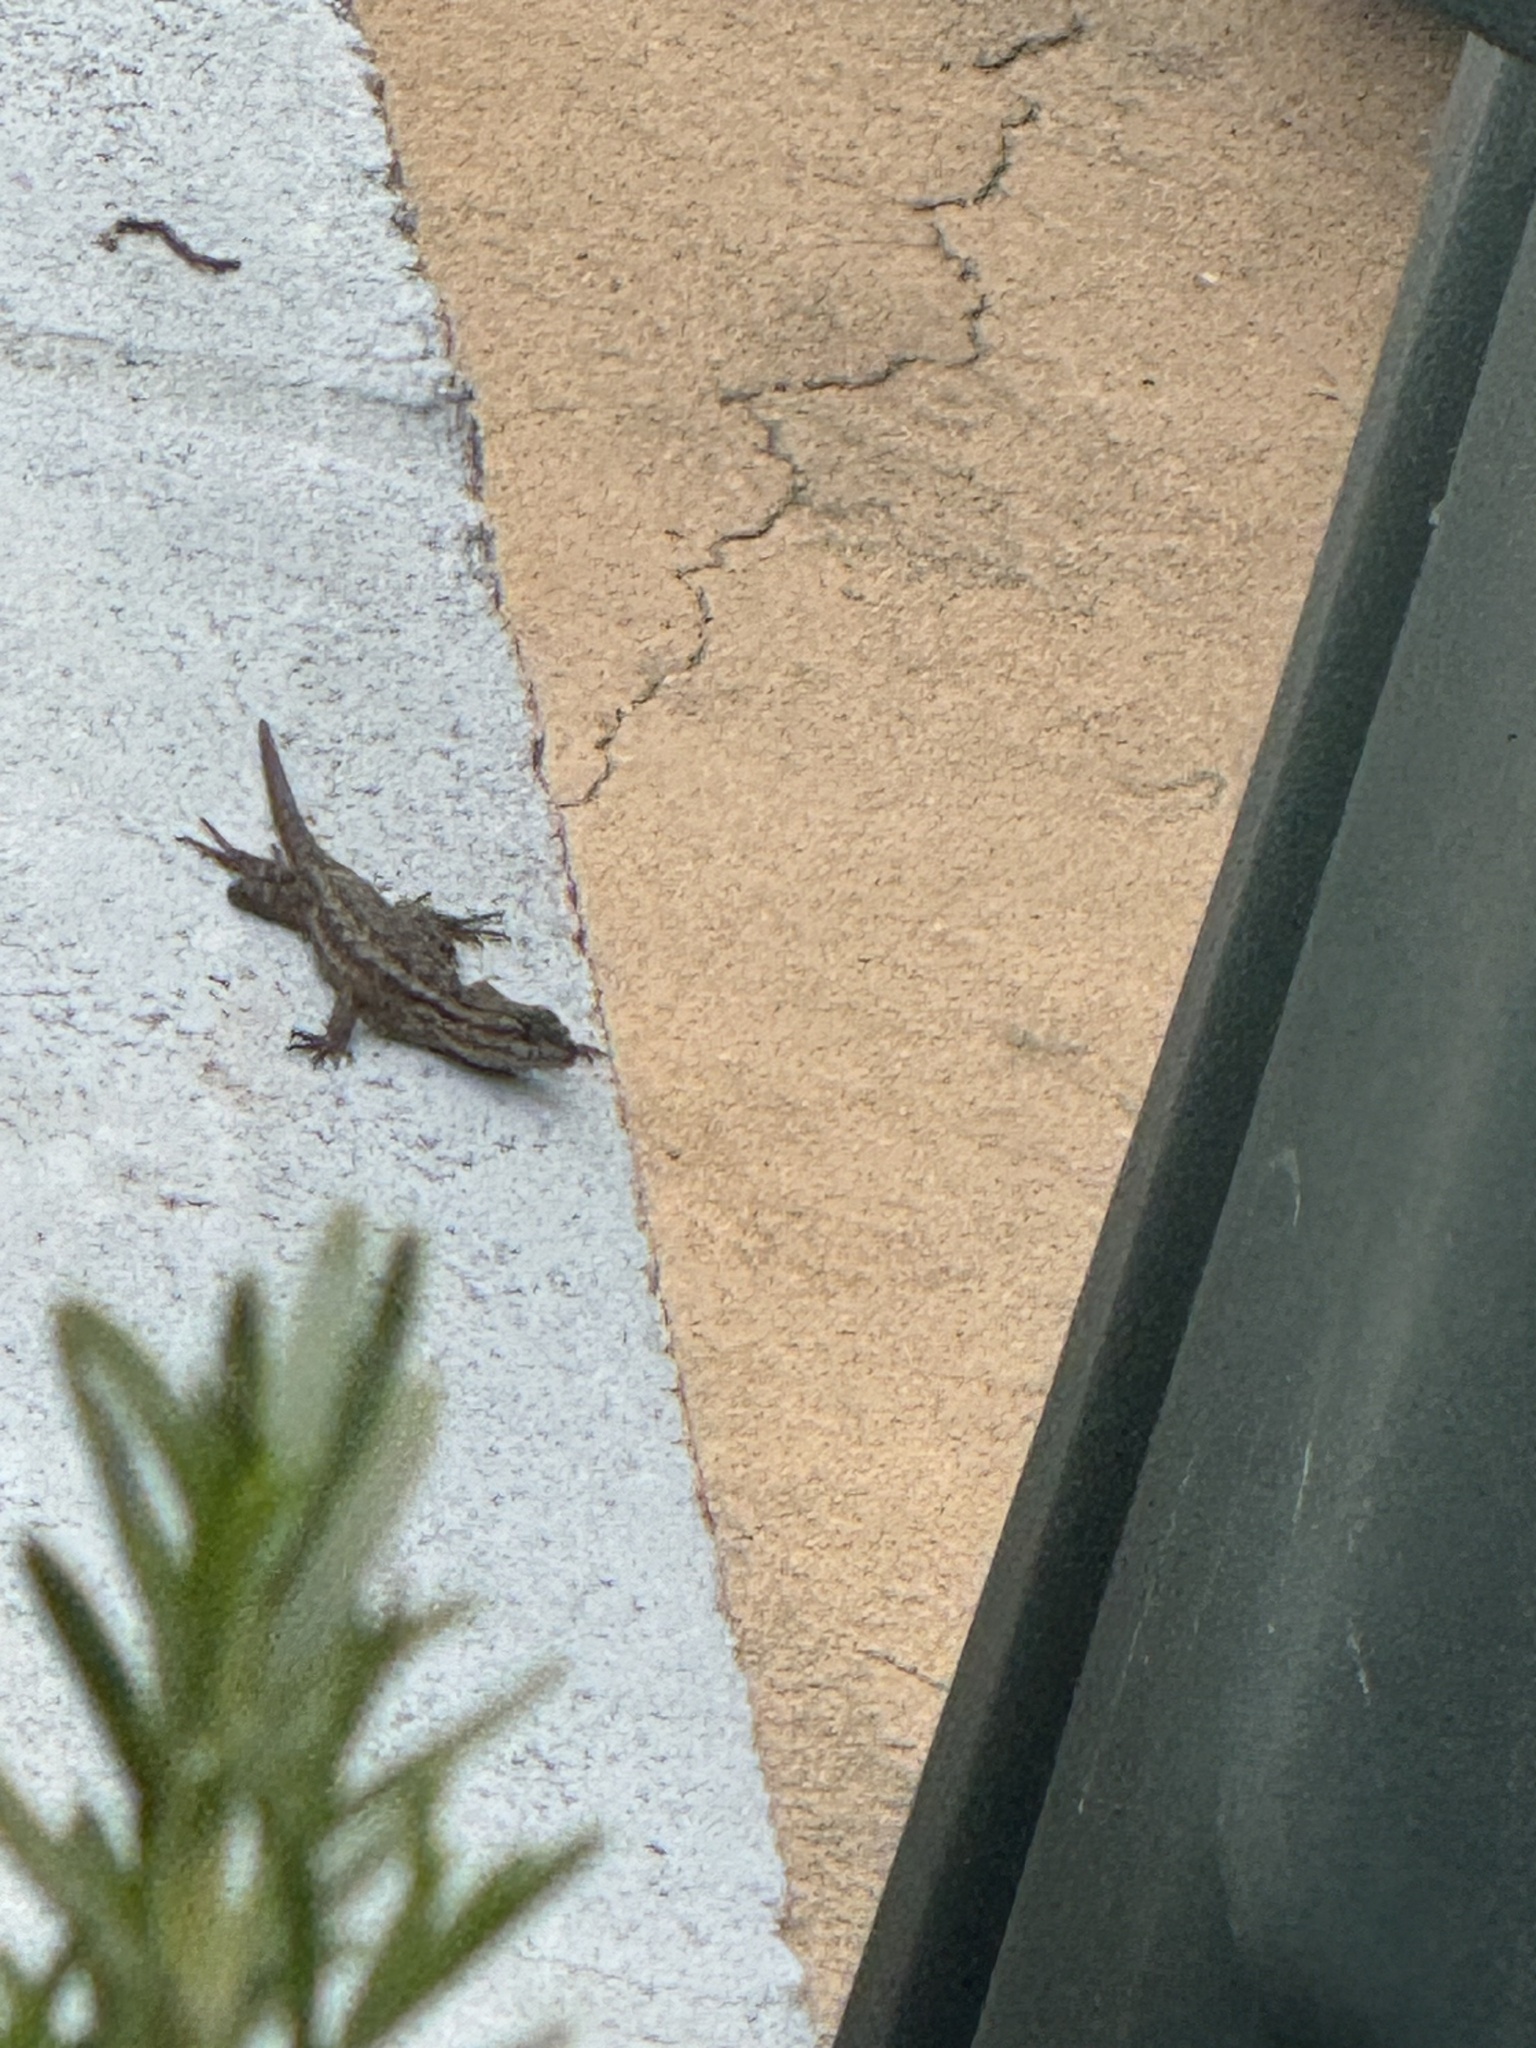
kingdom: Animalia
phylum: Chordata
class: Squamata
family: Phrynosomatidae
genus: Sceloporus
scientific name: Sceloporus occidentalis
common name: Western fence lizard
